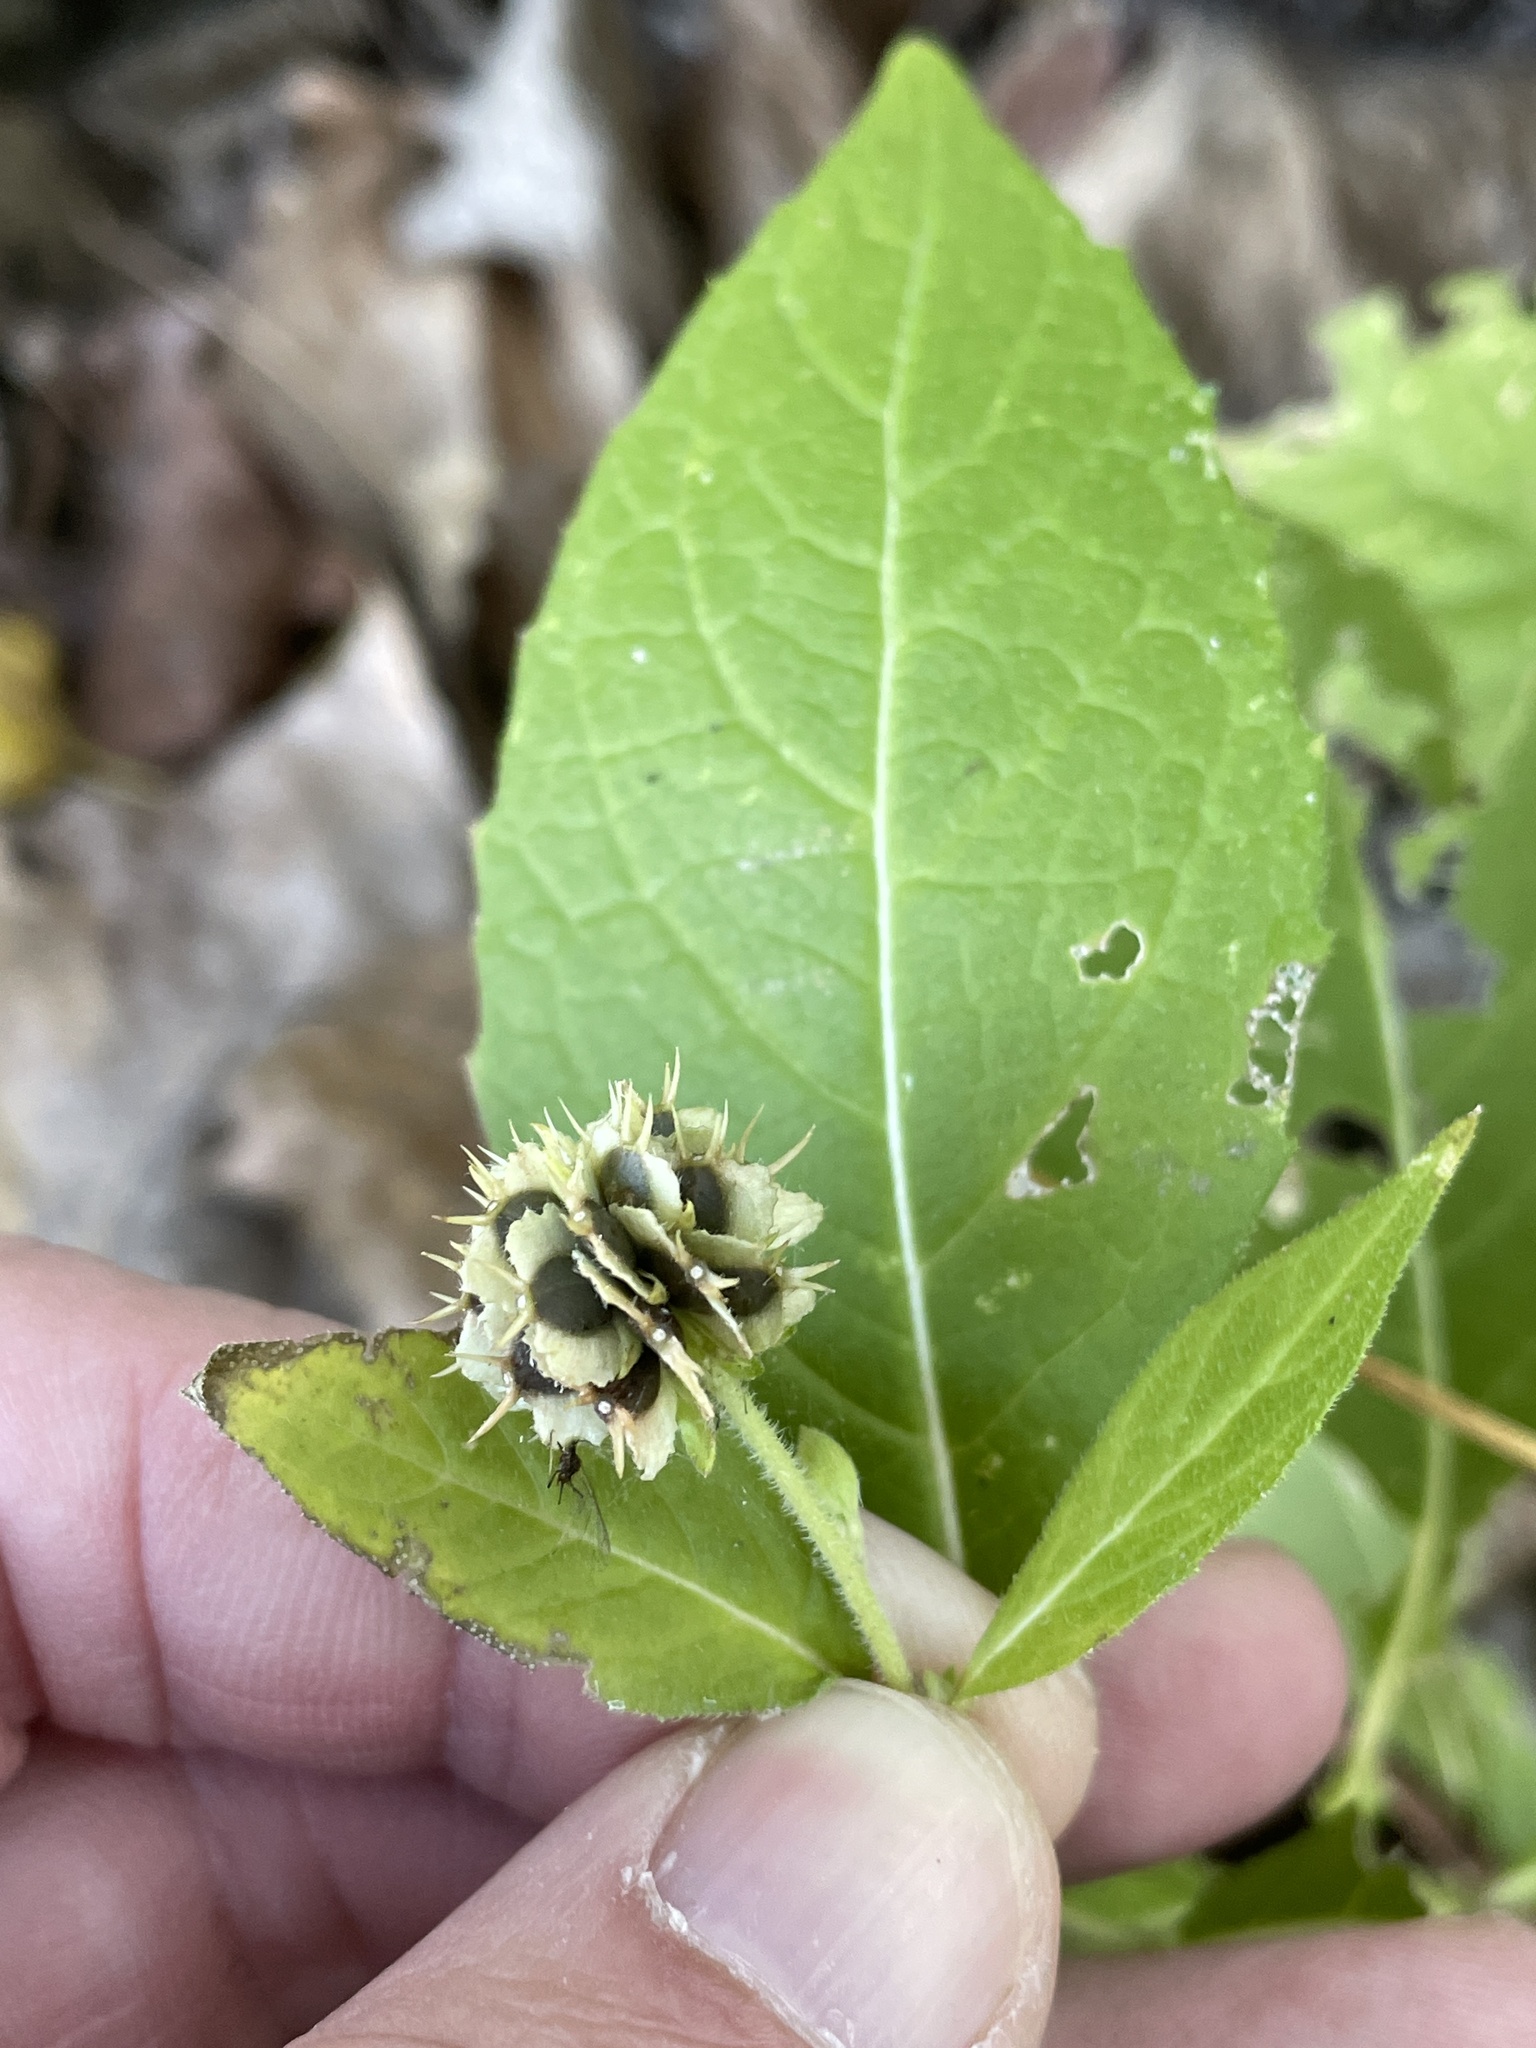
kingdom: Plantae
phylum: Tracheophyta
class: Magnoliopsida
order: Asterales
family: Asteraceae
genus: Verbesina
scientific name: Verbesina alternifolia
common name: Wingstem
